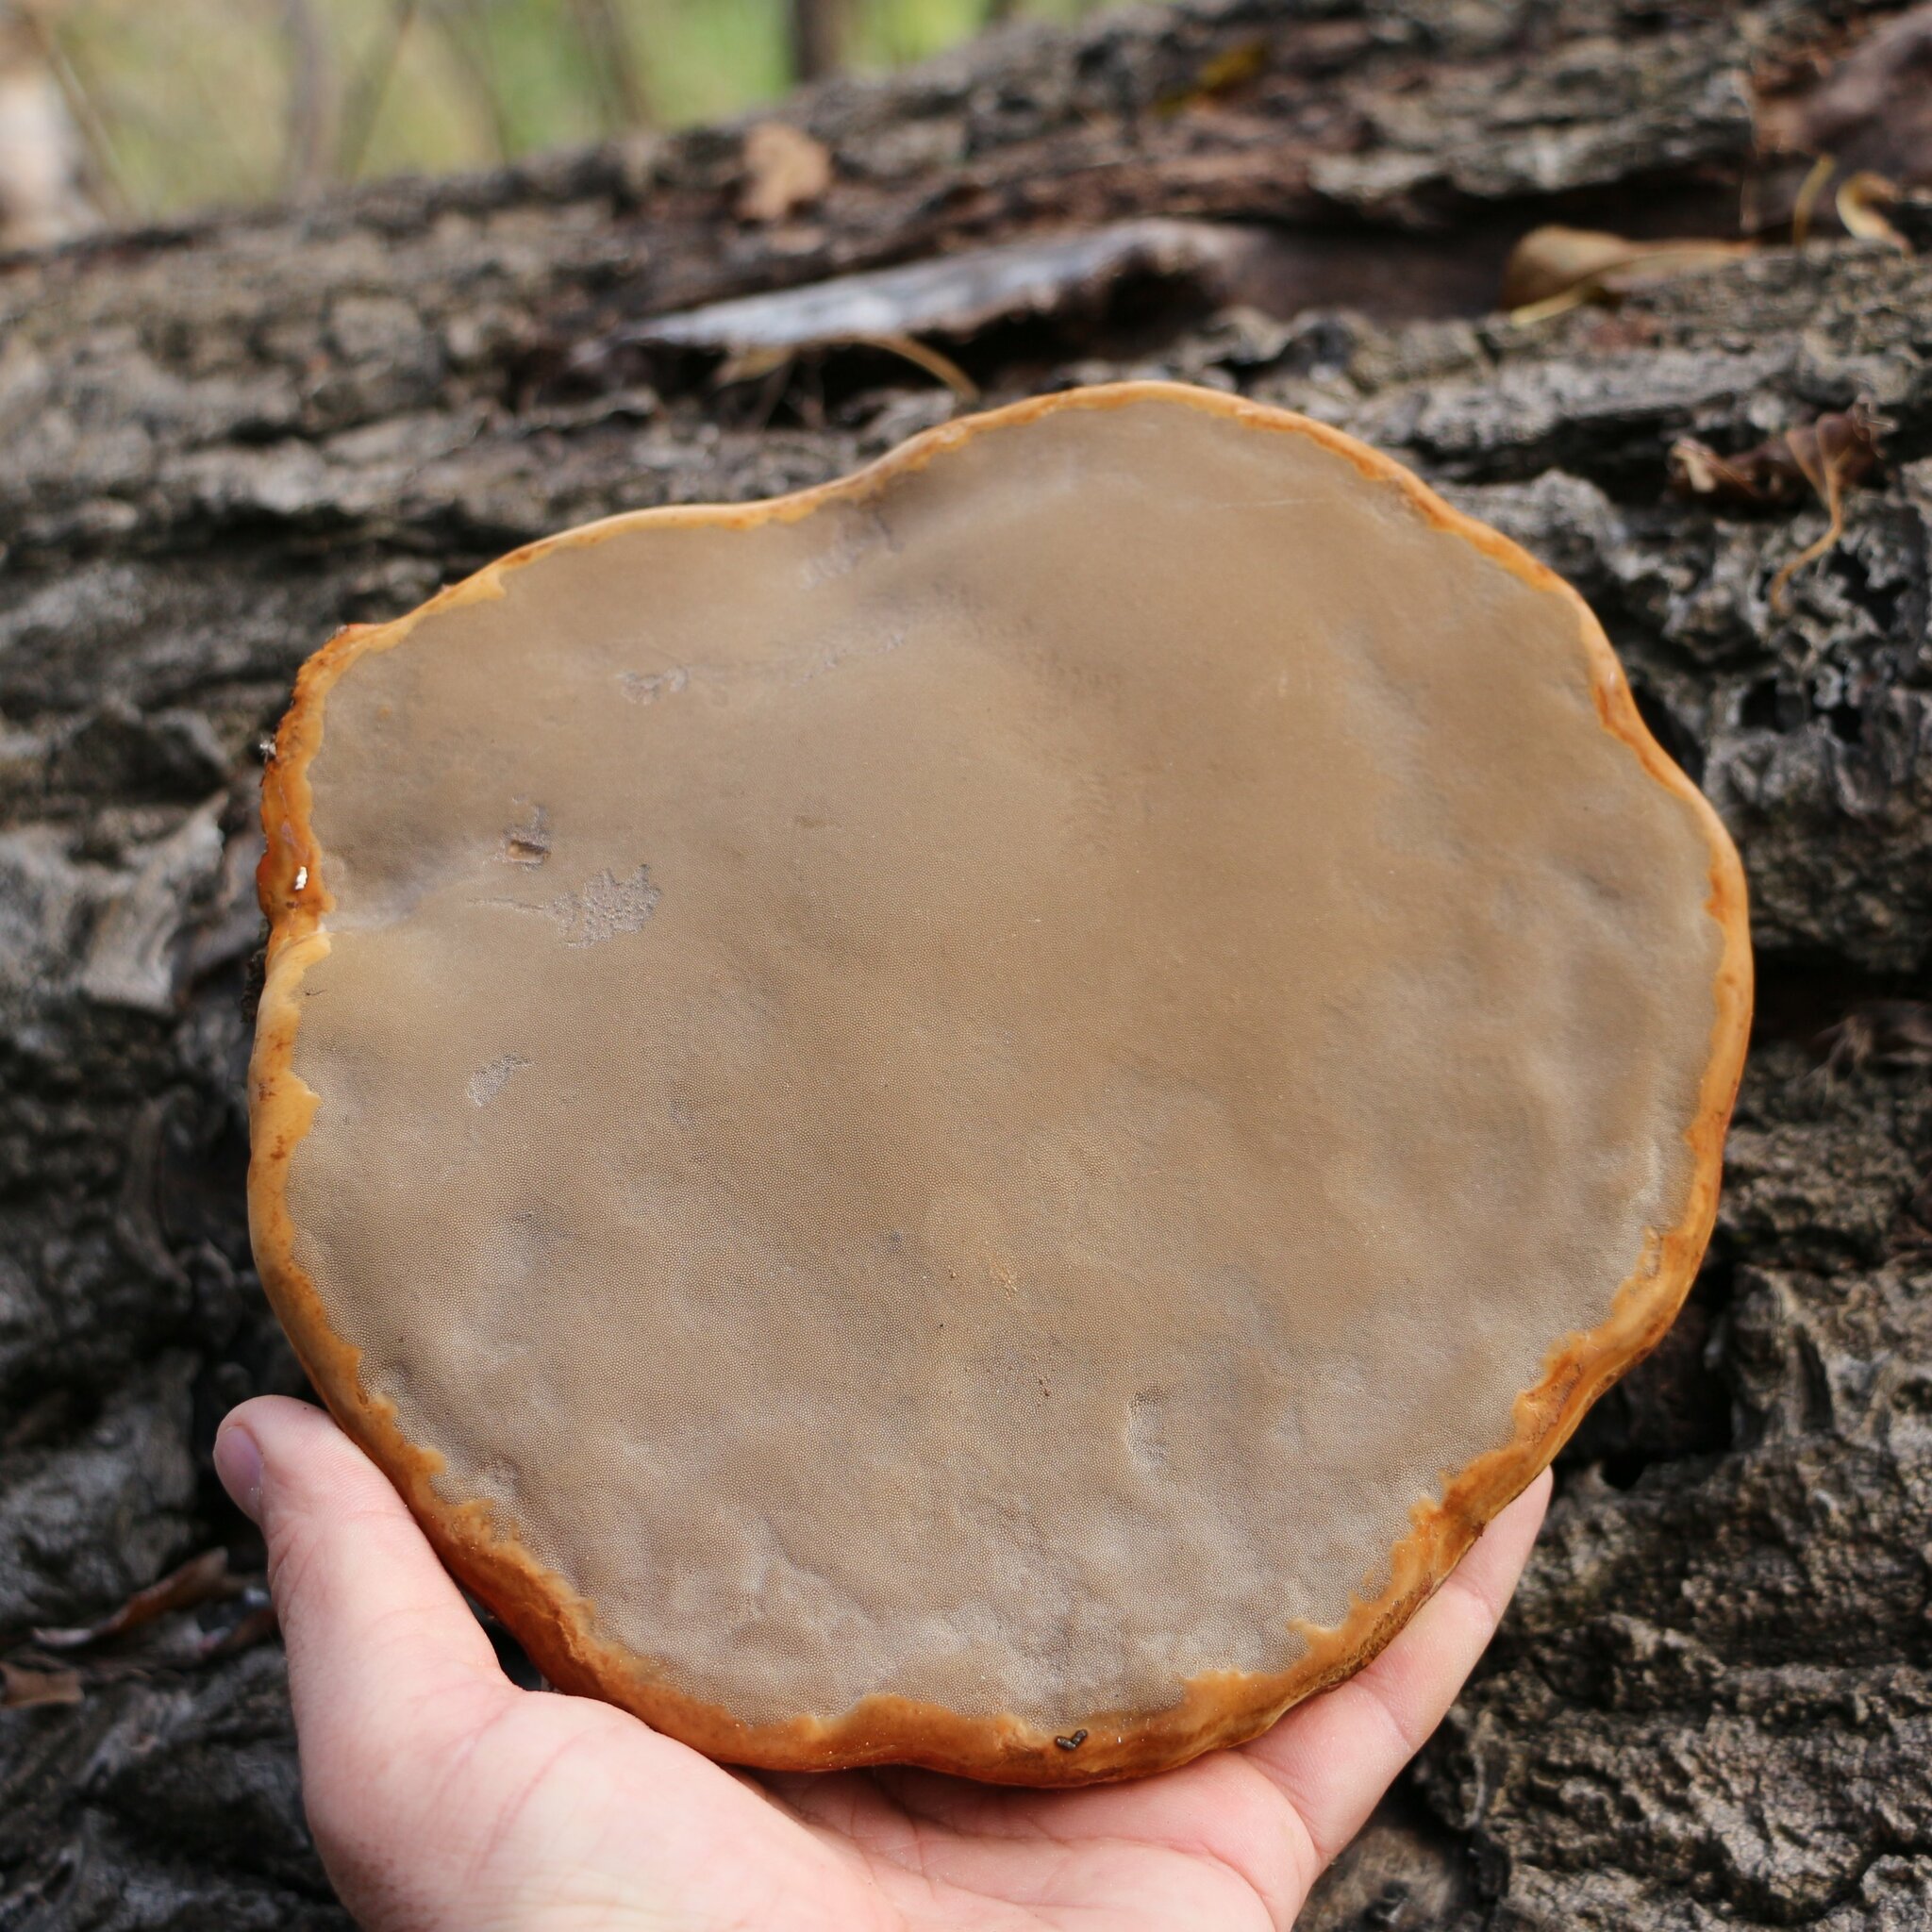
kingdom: Fungi
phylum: Basidiomycota
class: Agaricomycetes
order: Polyporales
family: Polyporaceae
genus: Fomes
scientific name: Fomes fomentarius
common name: Hoof fungus
